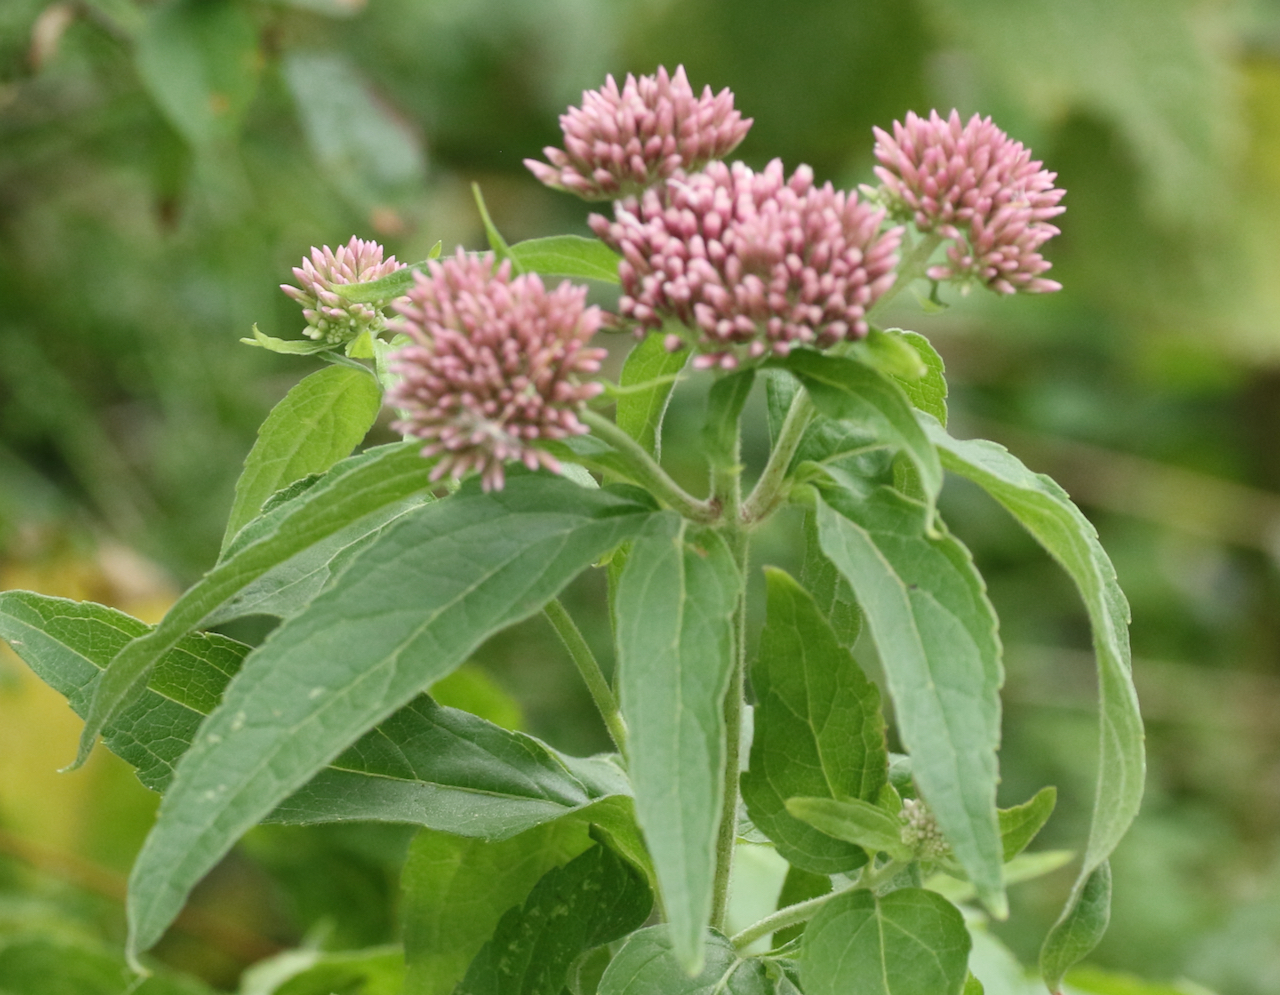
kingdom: Plantae
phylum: Tracheophyta
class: Magnoliopsida
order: Asterales
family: Asteraceae
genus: Eupatorium
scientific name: Eupatorium cannabinum
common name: Hemp-agrimony
